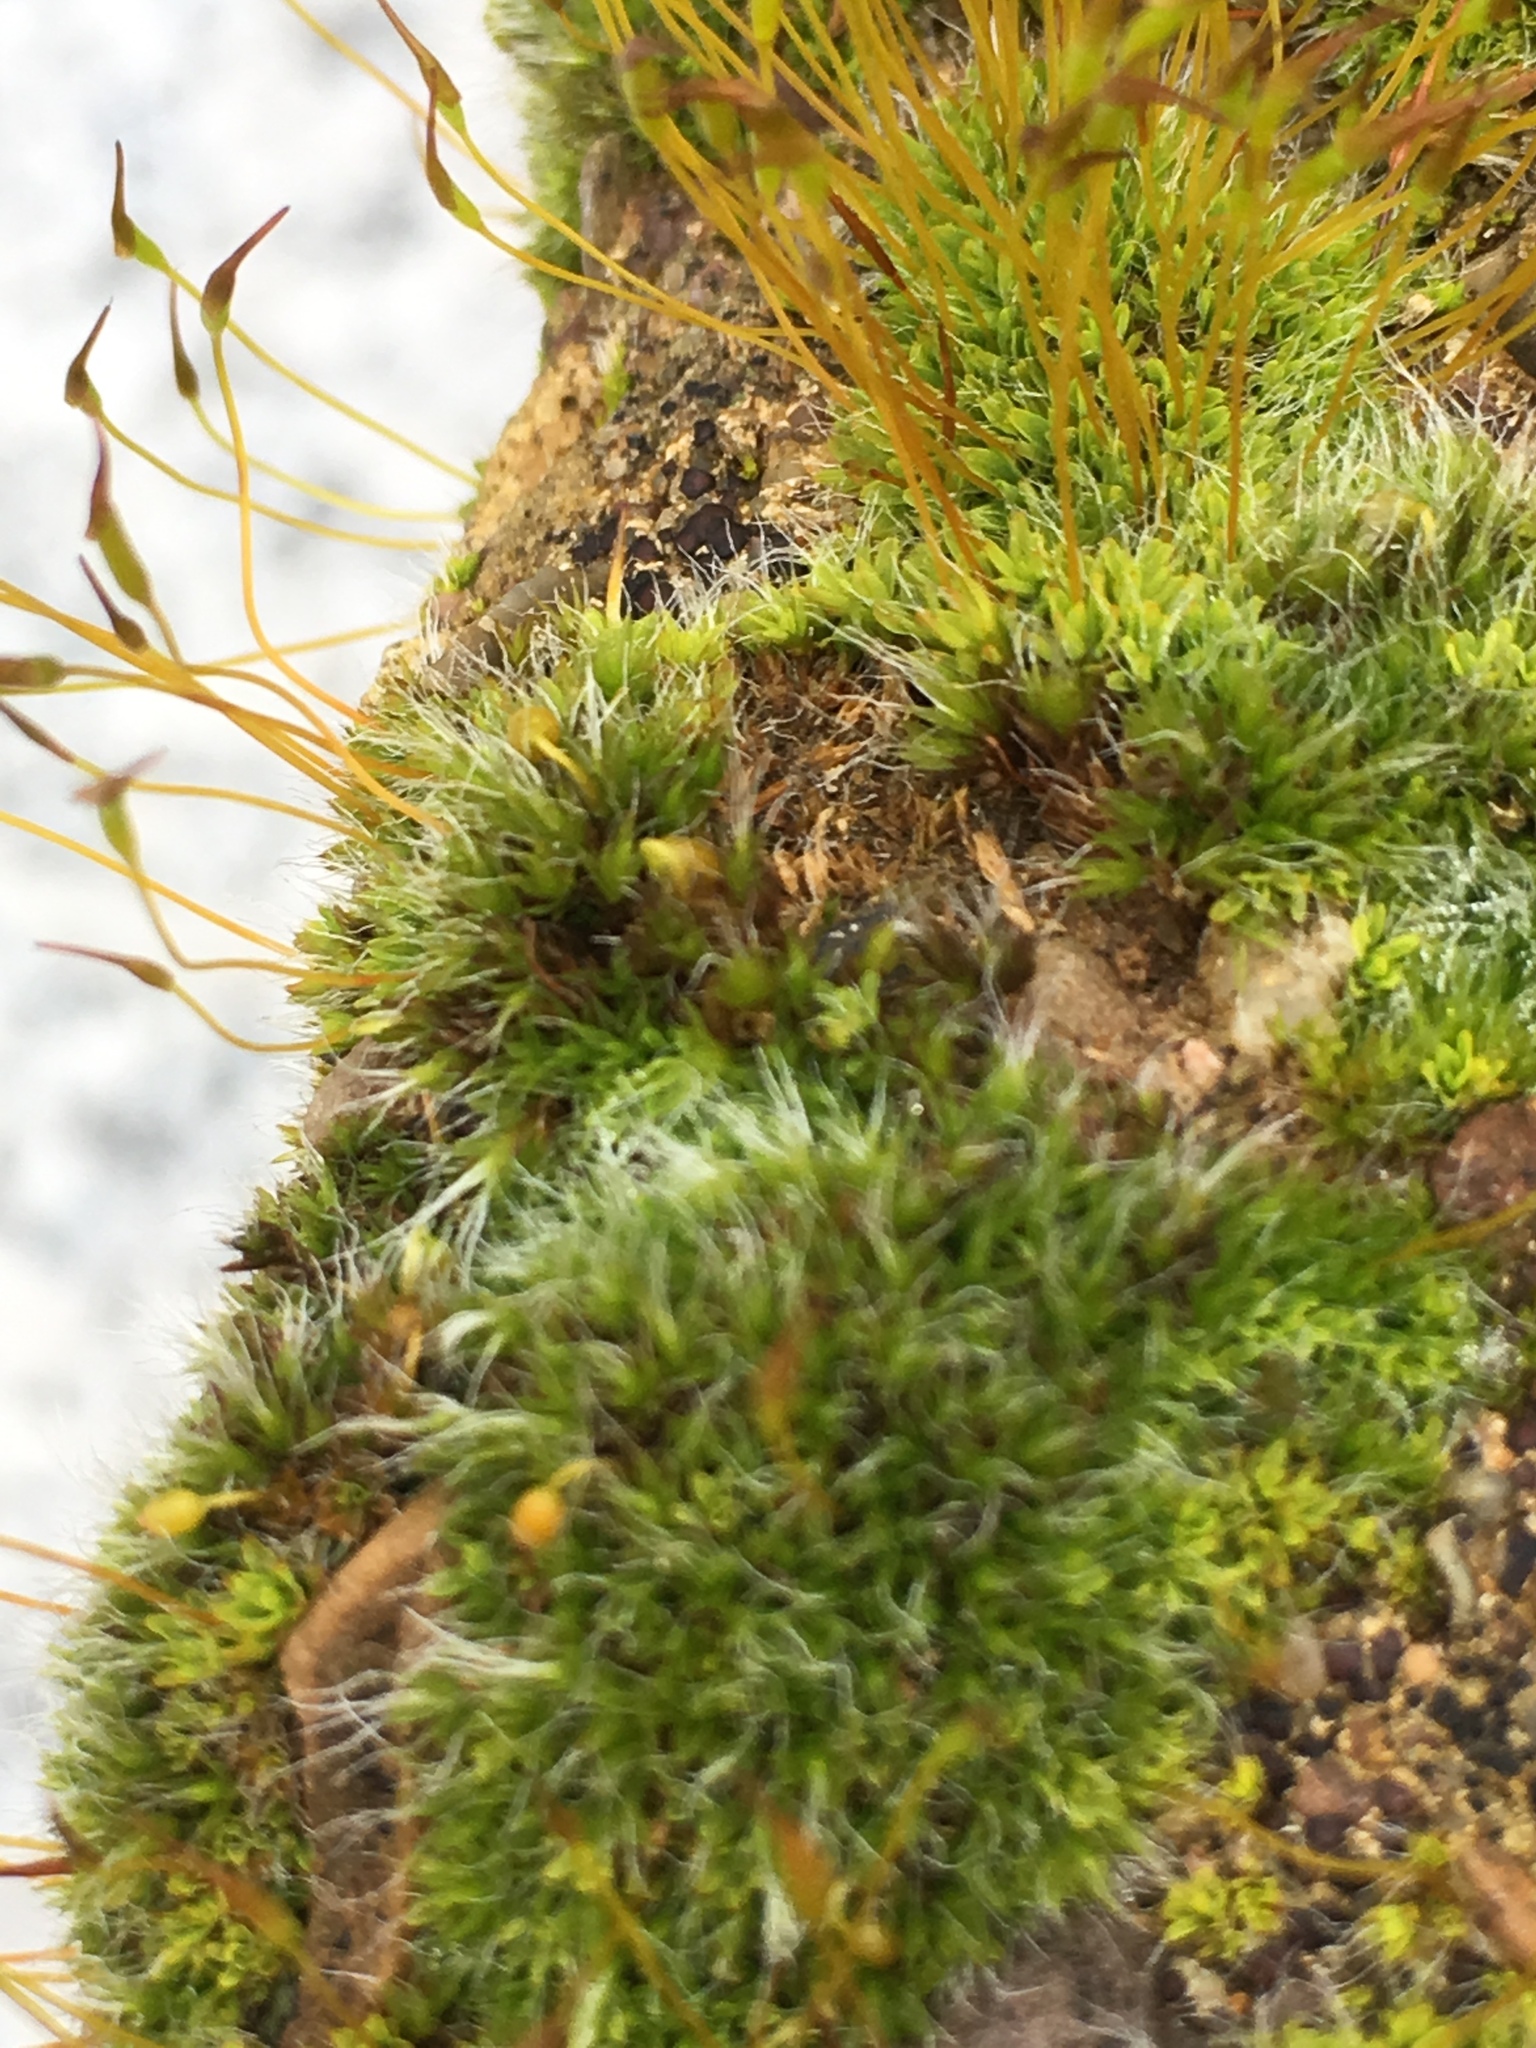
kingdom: Plantae
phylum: Bryophyta
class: Bryopsida
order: Grimmiales
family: Grimmiaceae
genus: Grimmia
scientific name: Grimmia pulvinata
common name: Grey-cushioned grimmia
